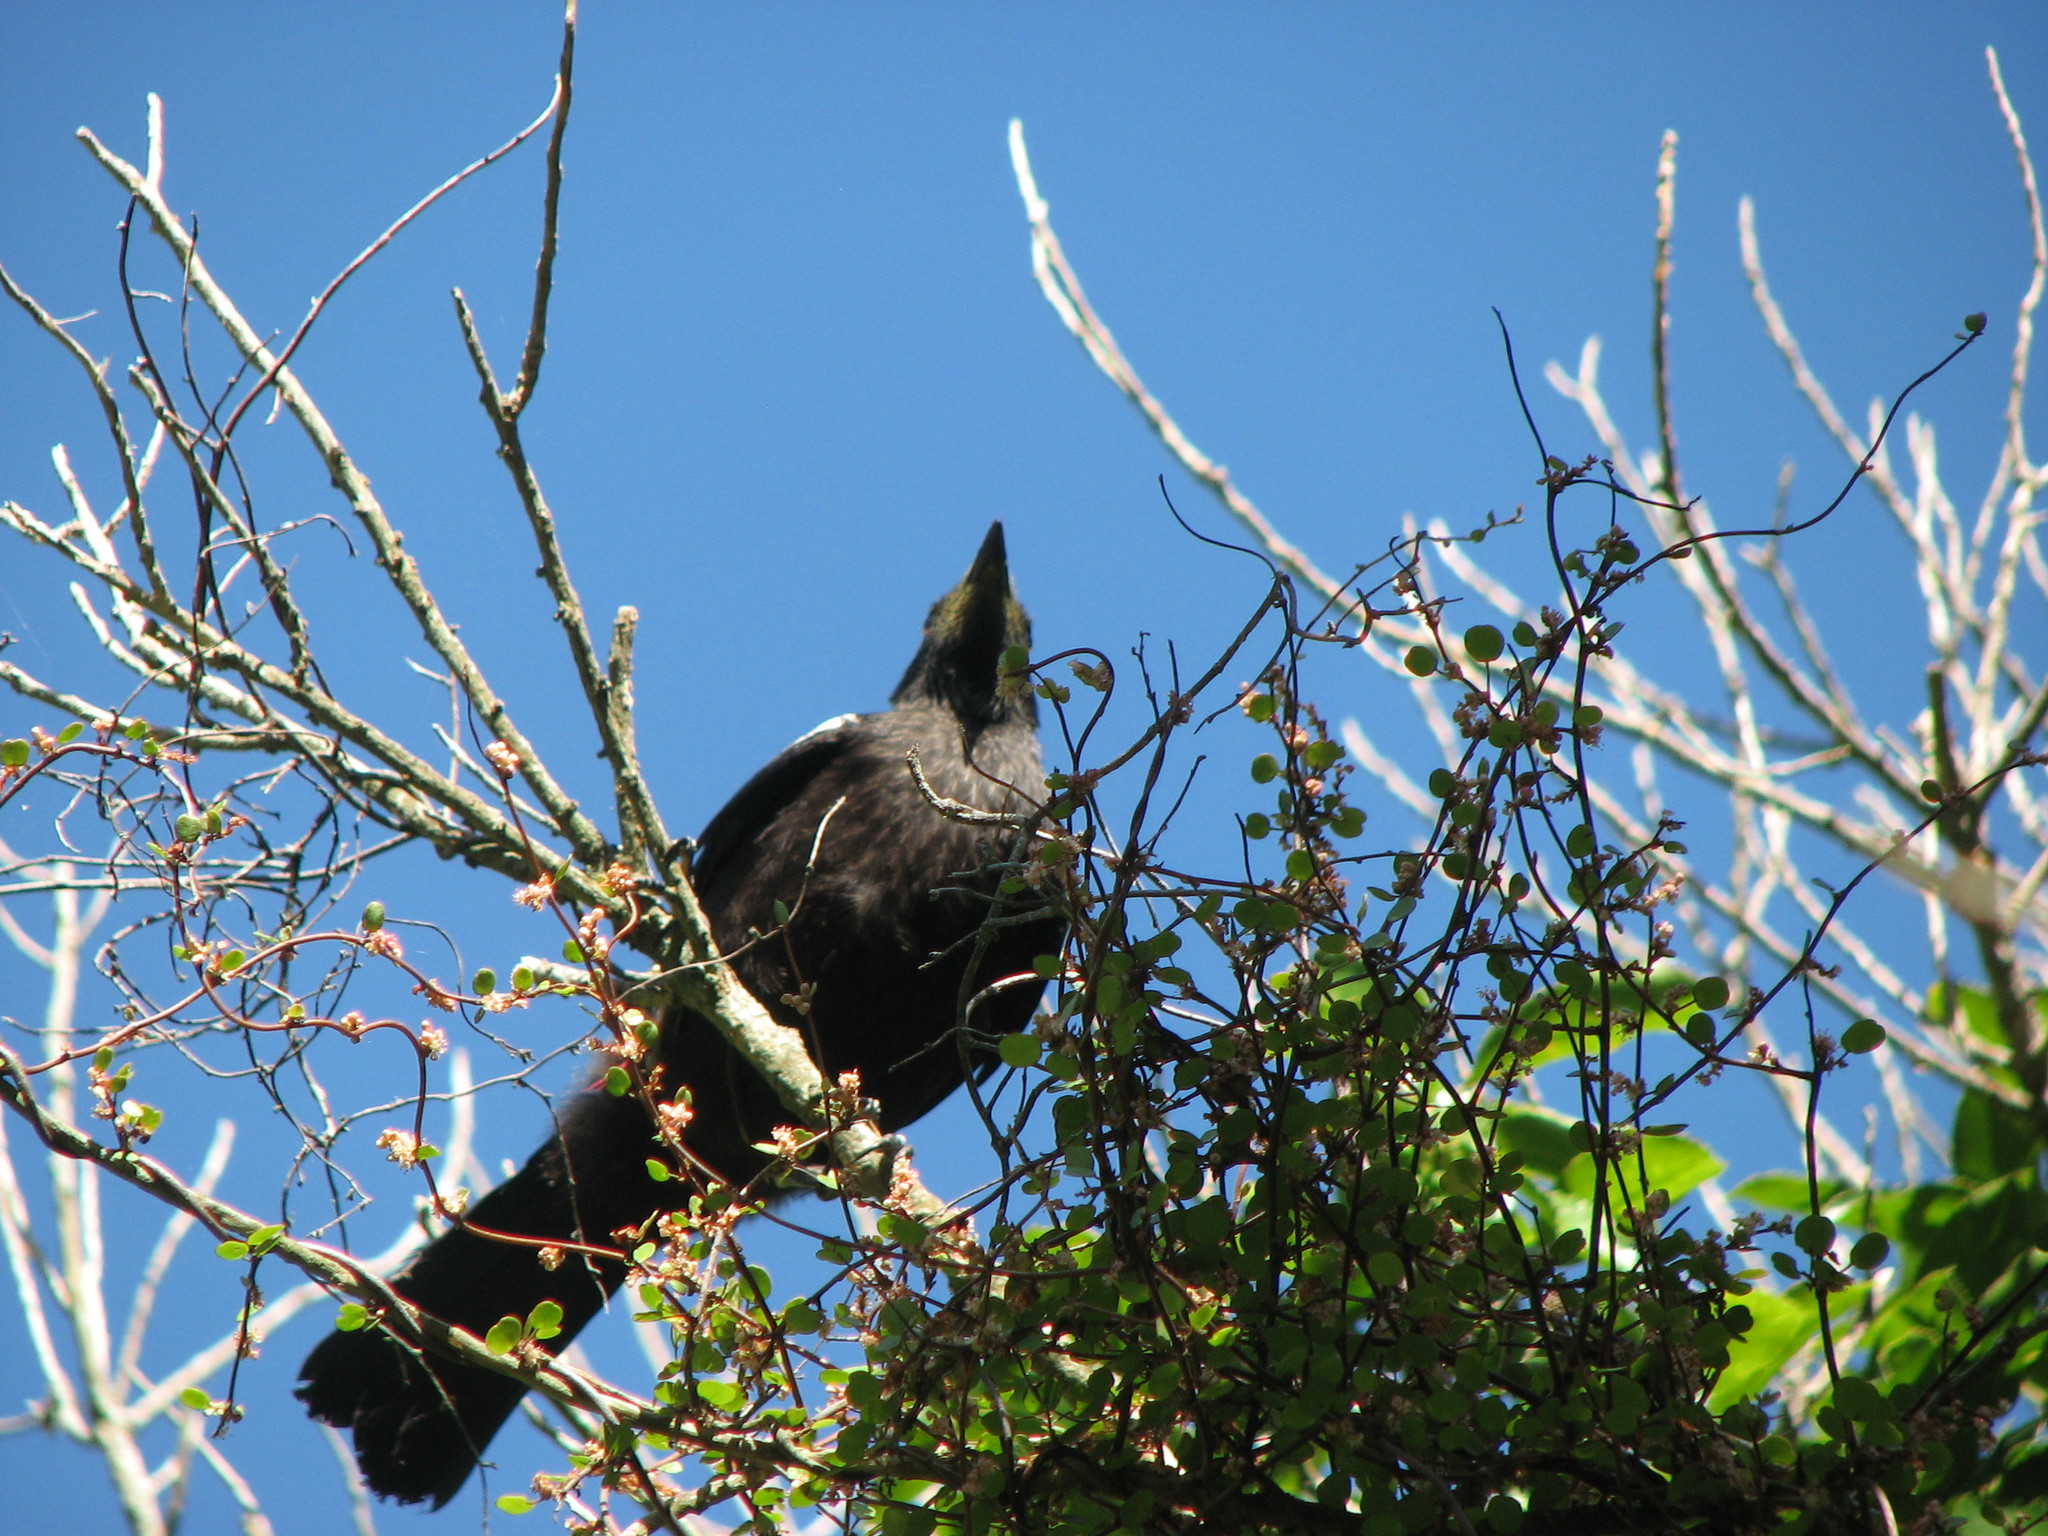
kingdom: Animalia
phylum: Chordata
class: Aves
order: Passeriformes
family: Meliphagidae
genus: Prosthemadera
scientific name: Prosthemadera novaeseelandiae
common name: Tui
